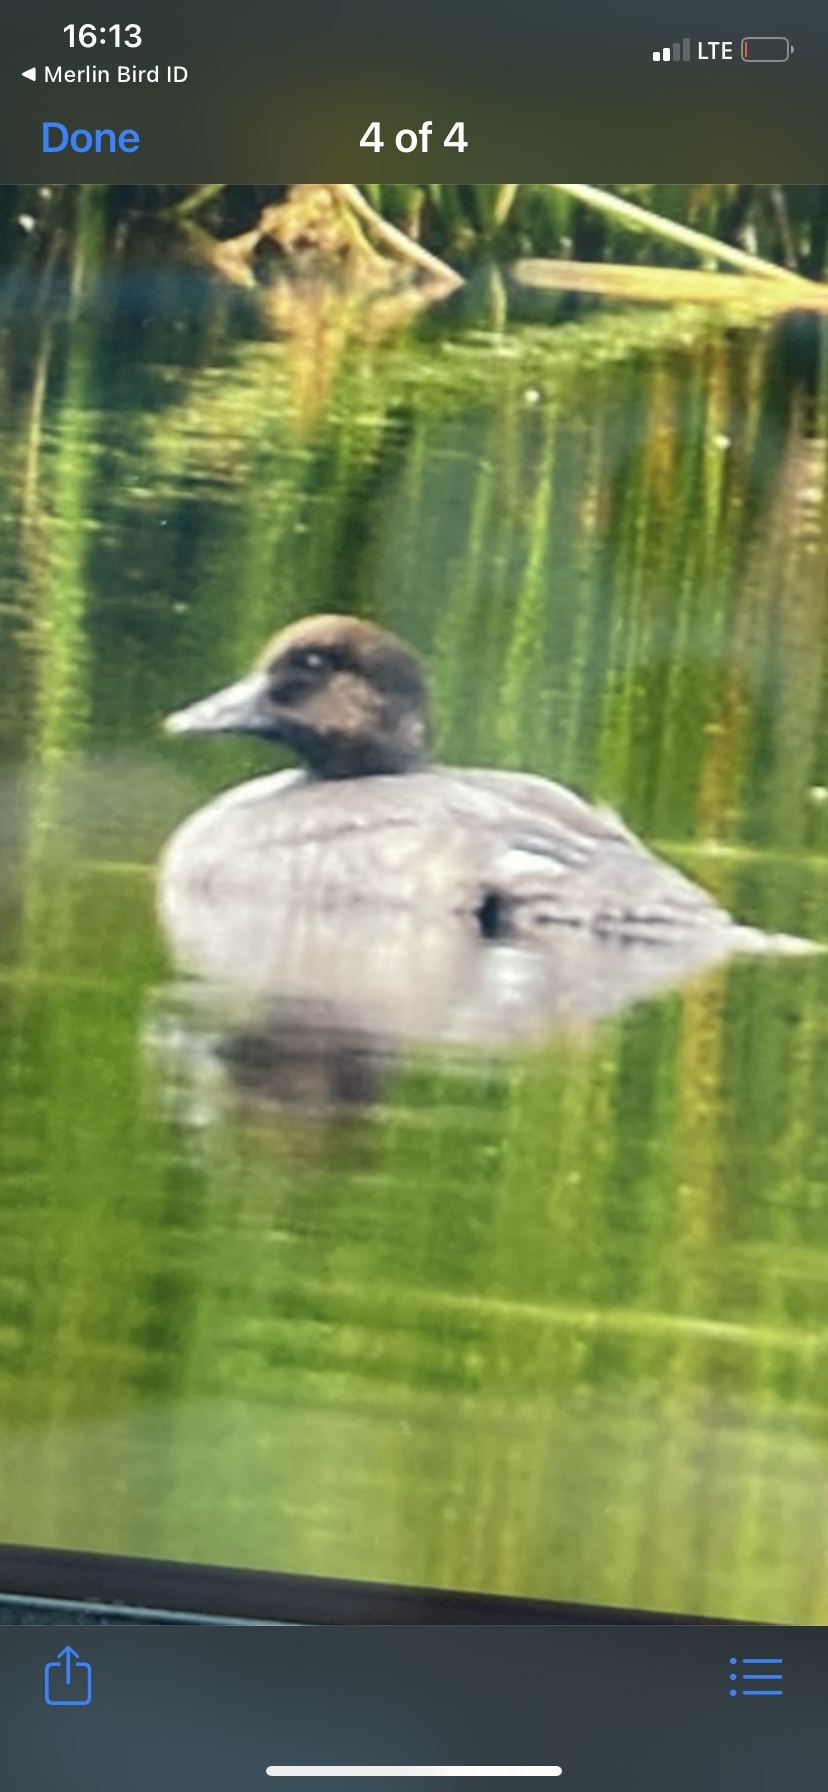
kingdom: Animalia
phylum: Chordata
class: Aves
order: Anseriformes
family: Anatidae
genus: Bucephala
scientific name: Bucephala clangula
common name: Common goldeneye
